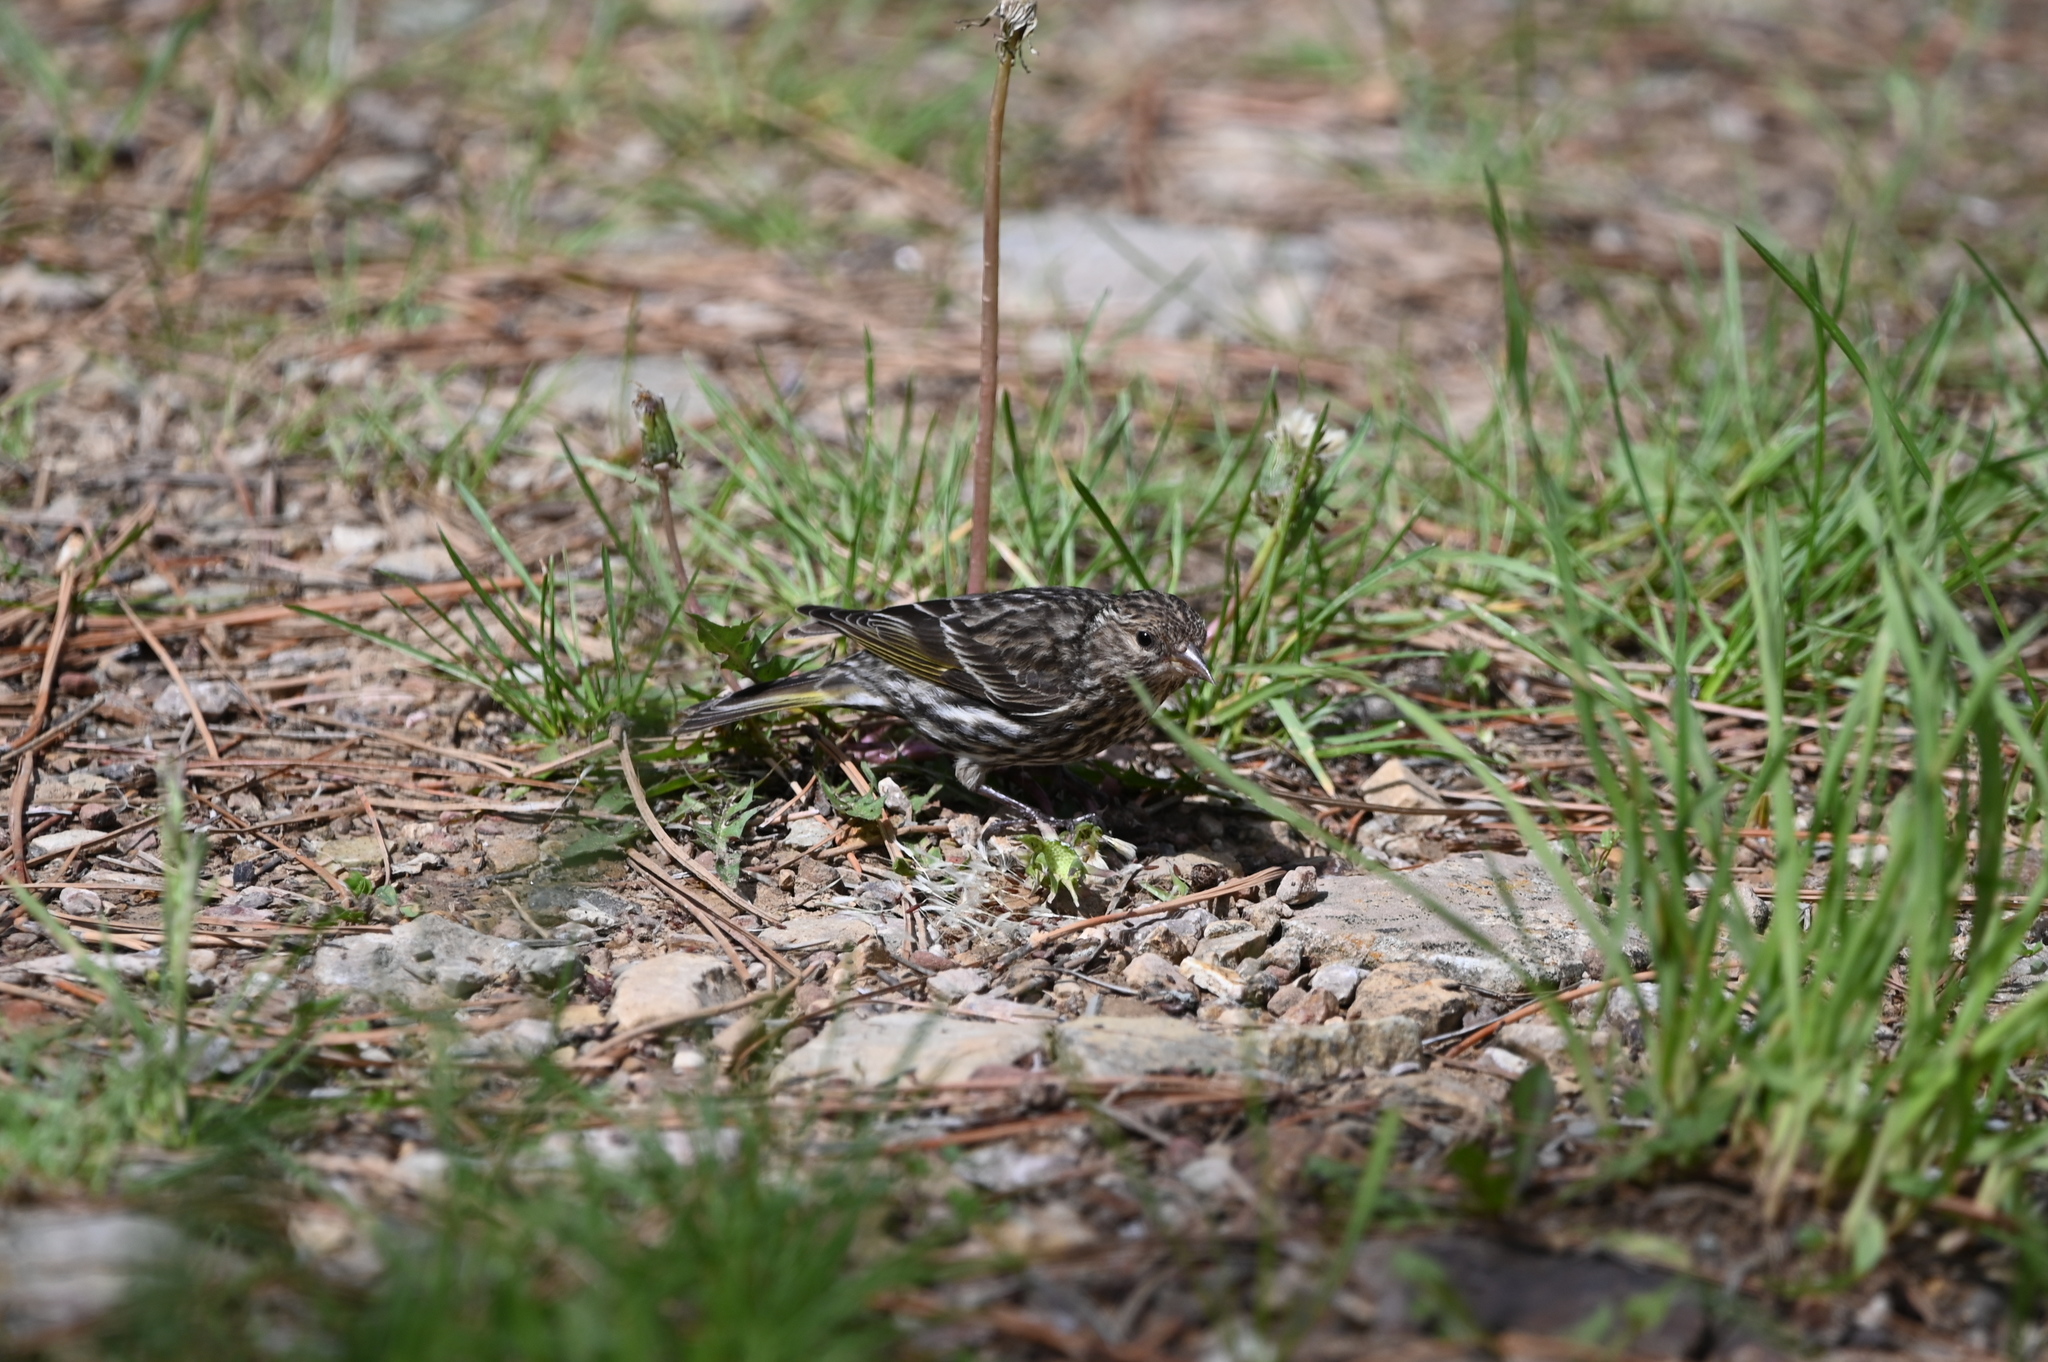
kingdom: Animalia
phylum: Chordata
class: Aves
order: Passeriformes
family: Fringillidae
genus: Spinus
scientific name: Spinus pinus
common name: Pine siskin
